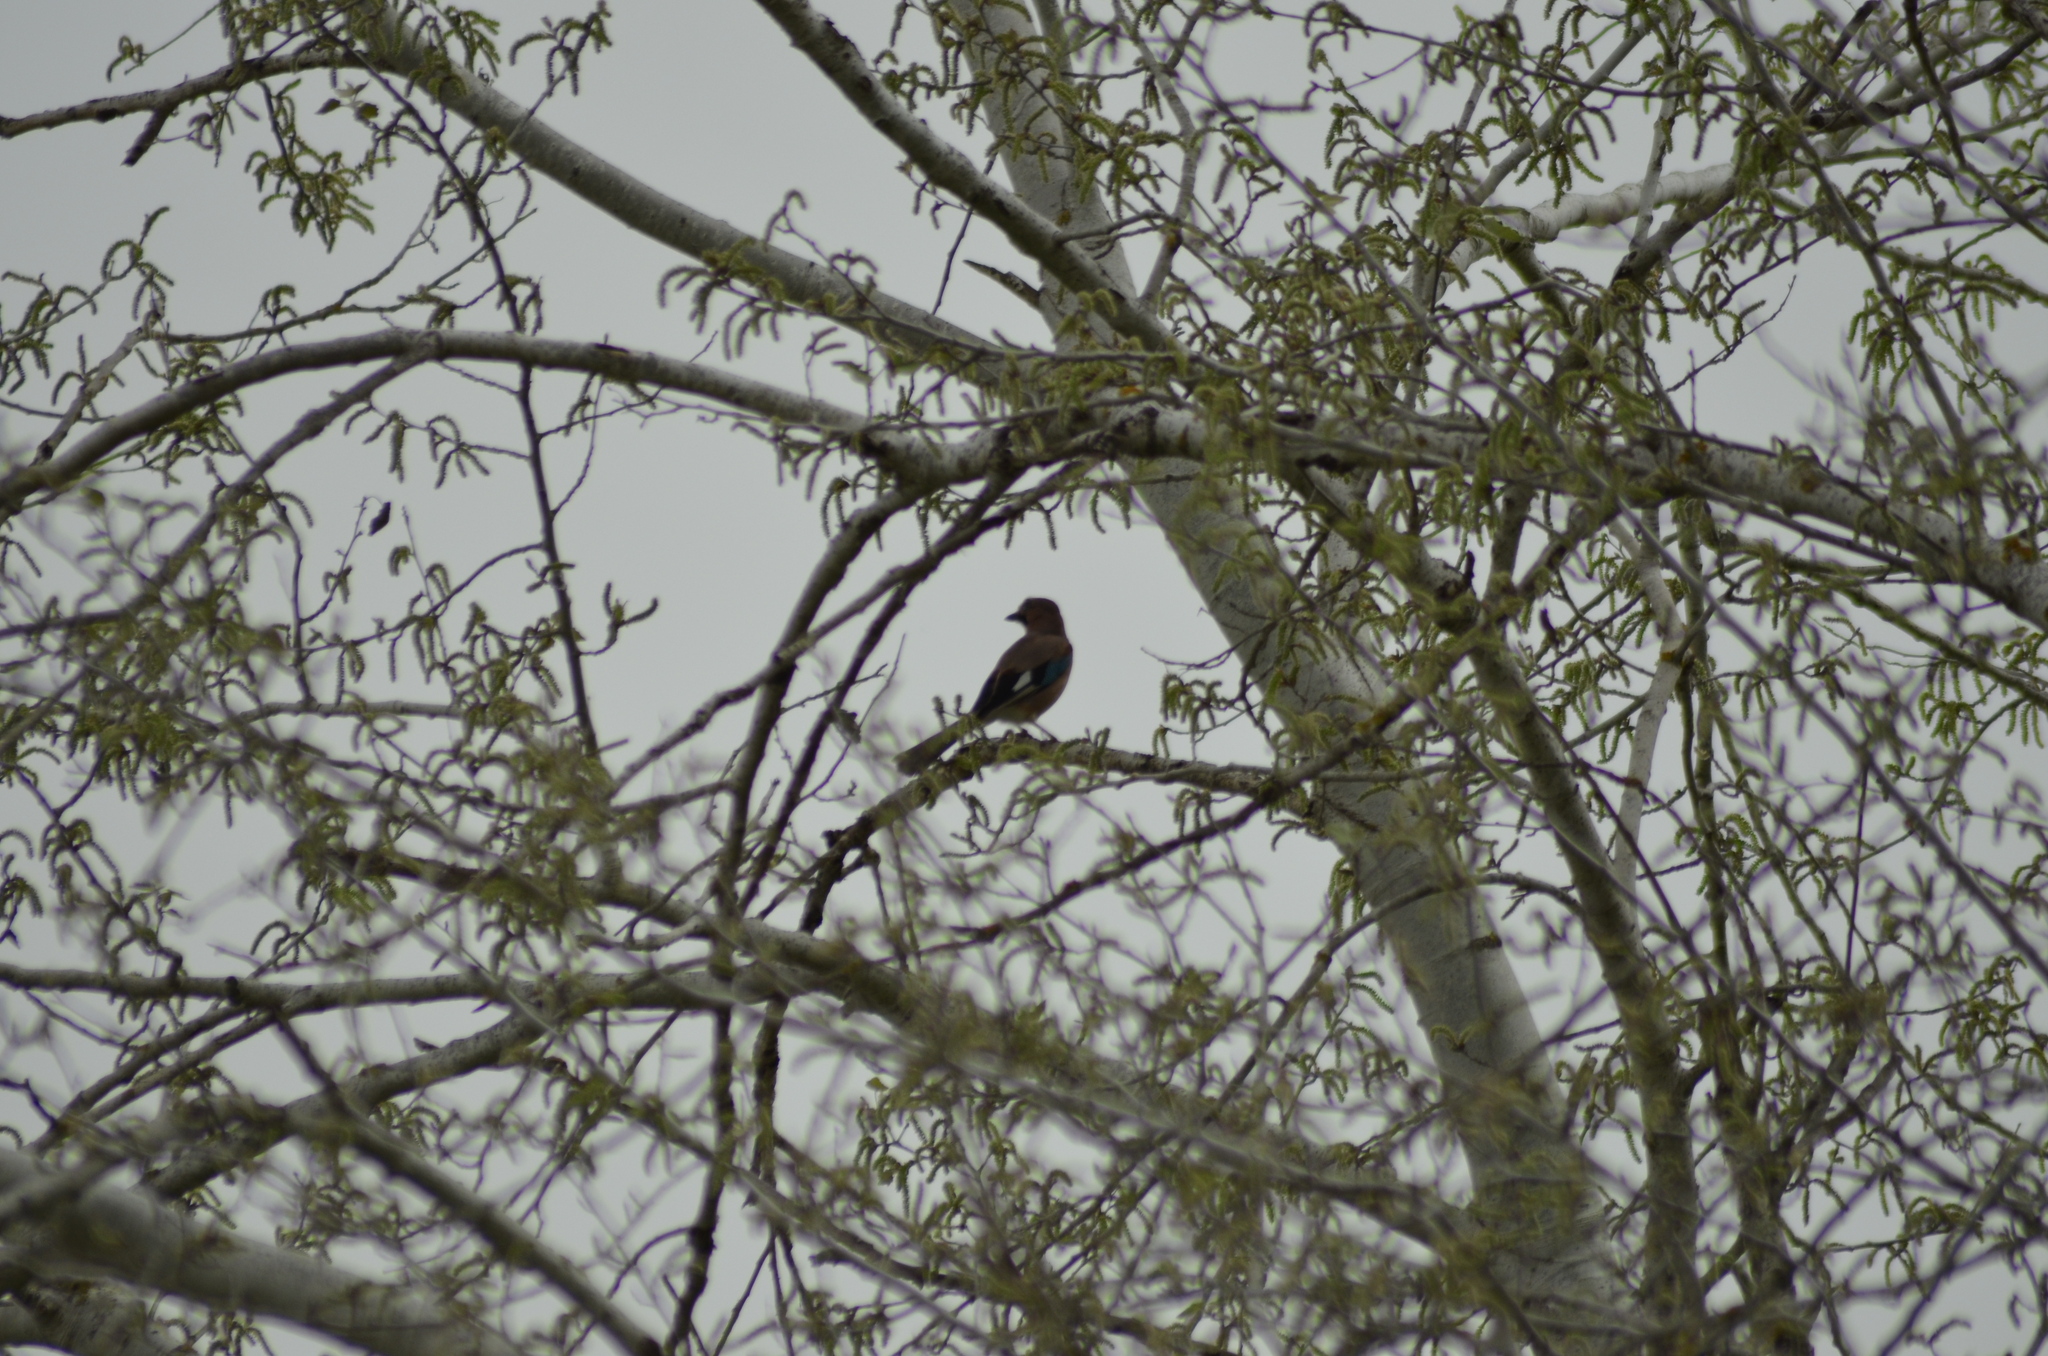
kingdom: Animalia
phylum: Chordata
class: Aves
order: Passeriformes
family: Corvidae
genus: Garrulus
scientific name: Garrulus glandarius
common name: Eurasian jay
